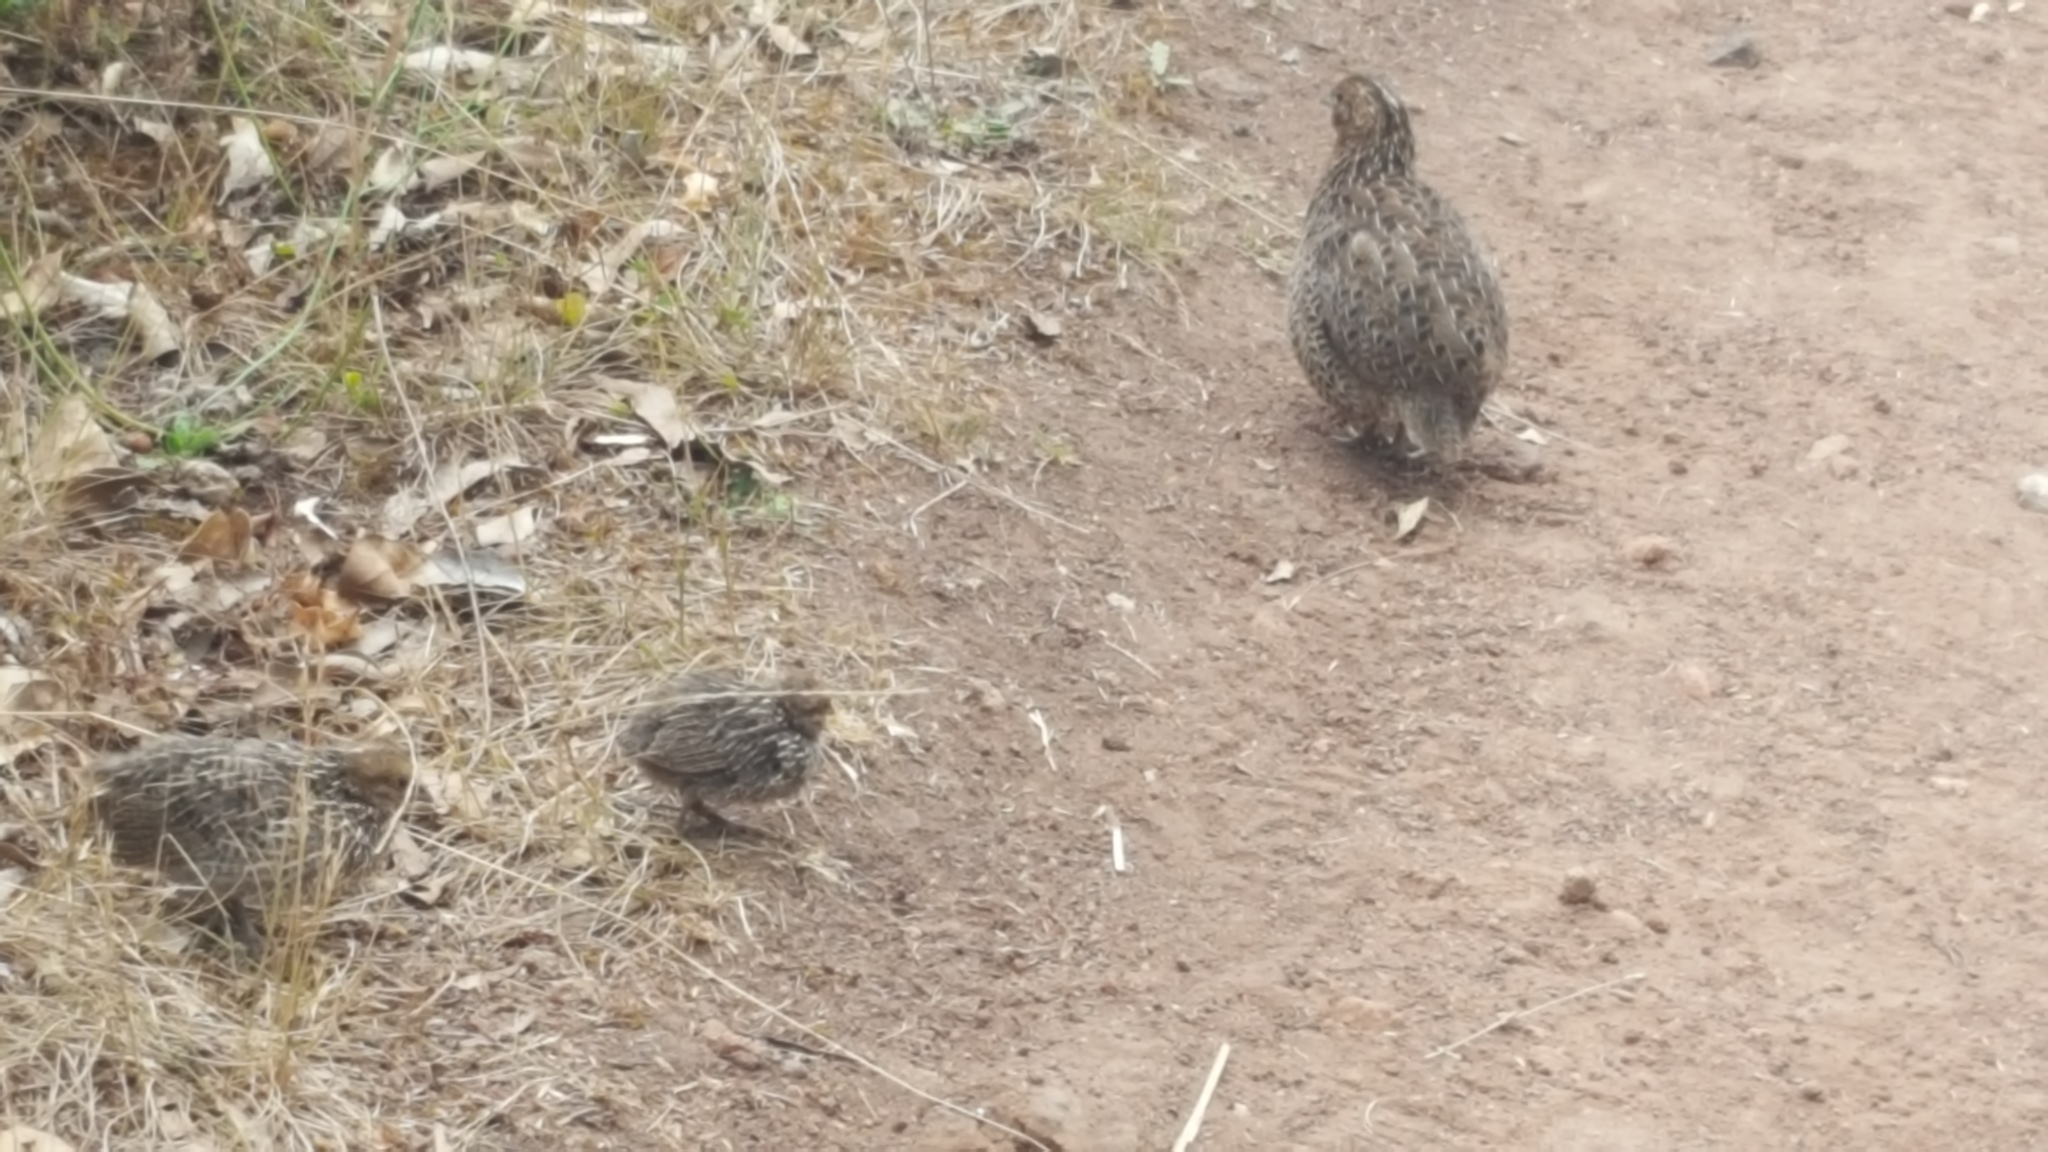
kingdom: Animalia
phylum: Chordata
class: Aves
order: Galliformes
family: Phasianidae
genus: Synoicus
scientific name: Synoicus ypsilophorus
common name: Brown quail
